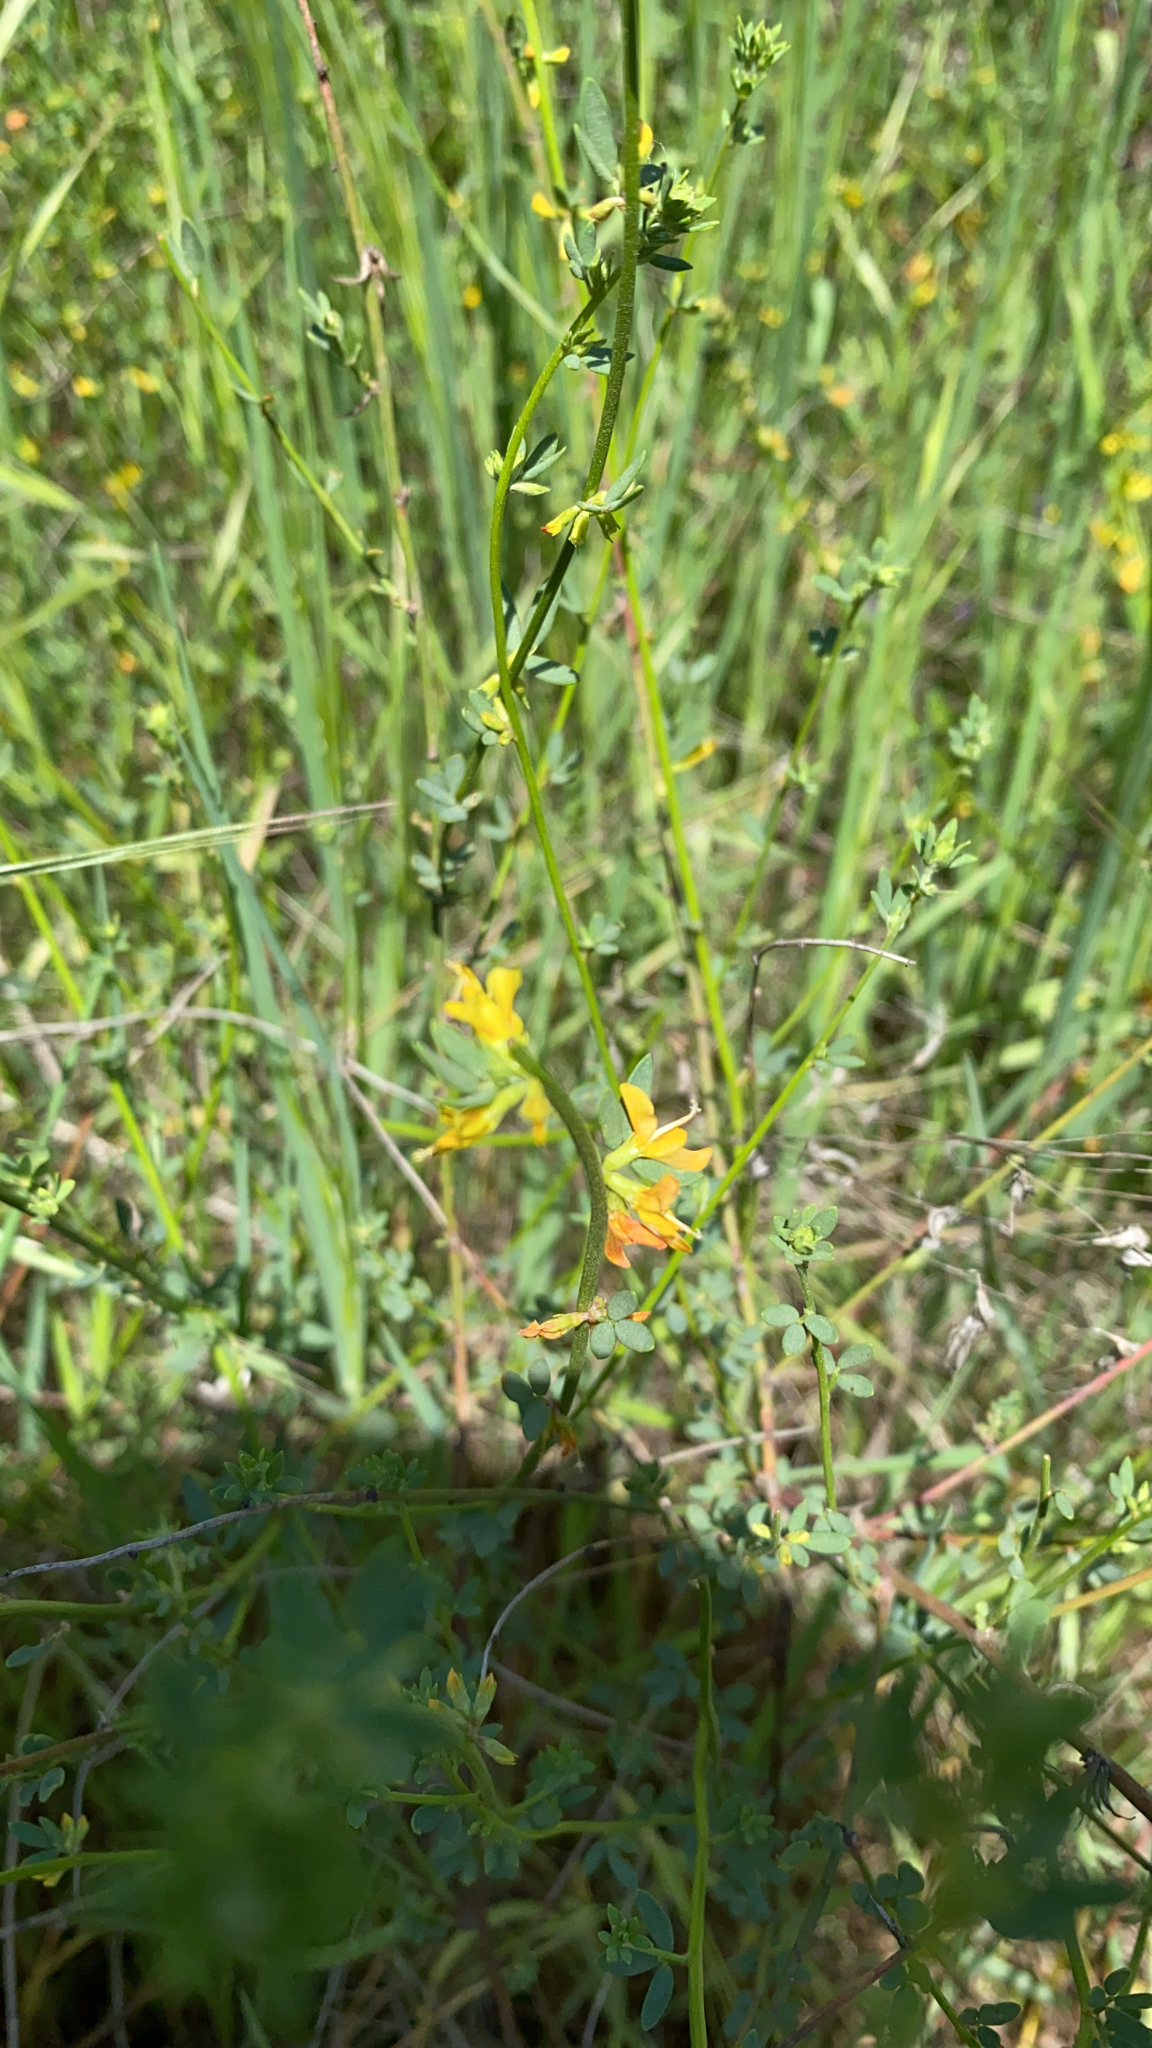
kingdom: Plantae
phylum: Tracheophyta
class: Magnoliopsida
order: Fabales
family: Fabaceae
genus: Acmispon
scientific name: Acmispon glaber
